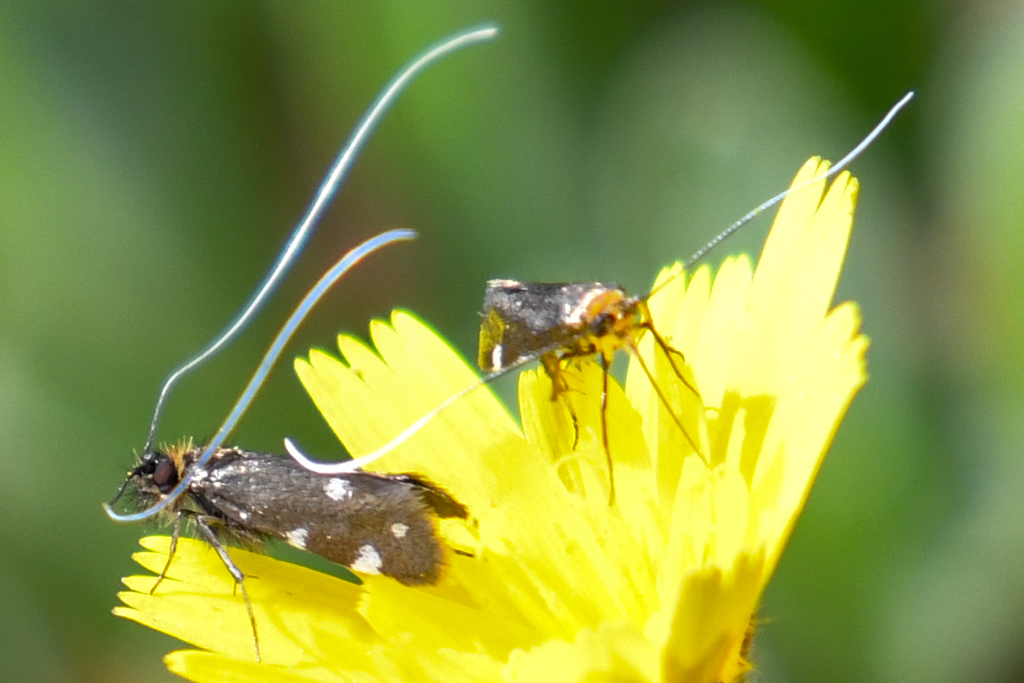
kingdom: Animalia
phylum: Arthropoda
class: Insecta
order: Lepidoptera
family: Adelidae
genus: Adela
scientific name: Adela flammeusella
